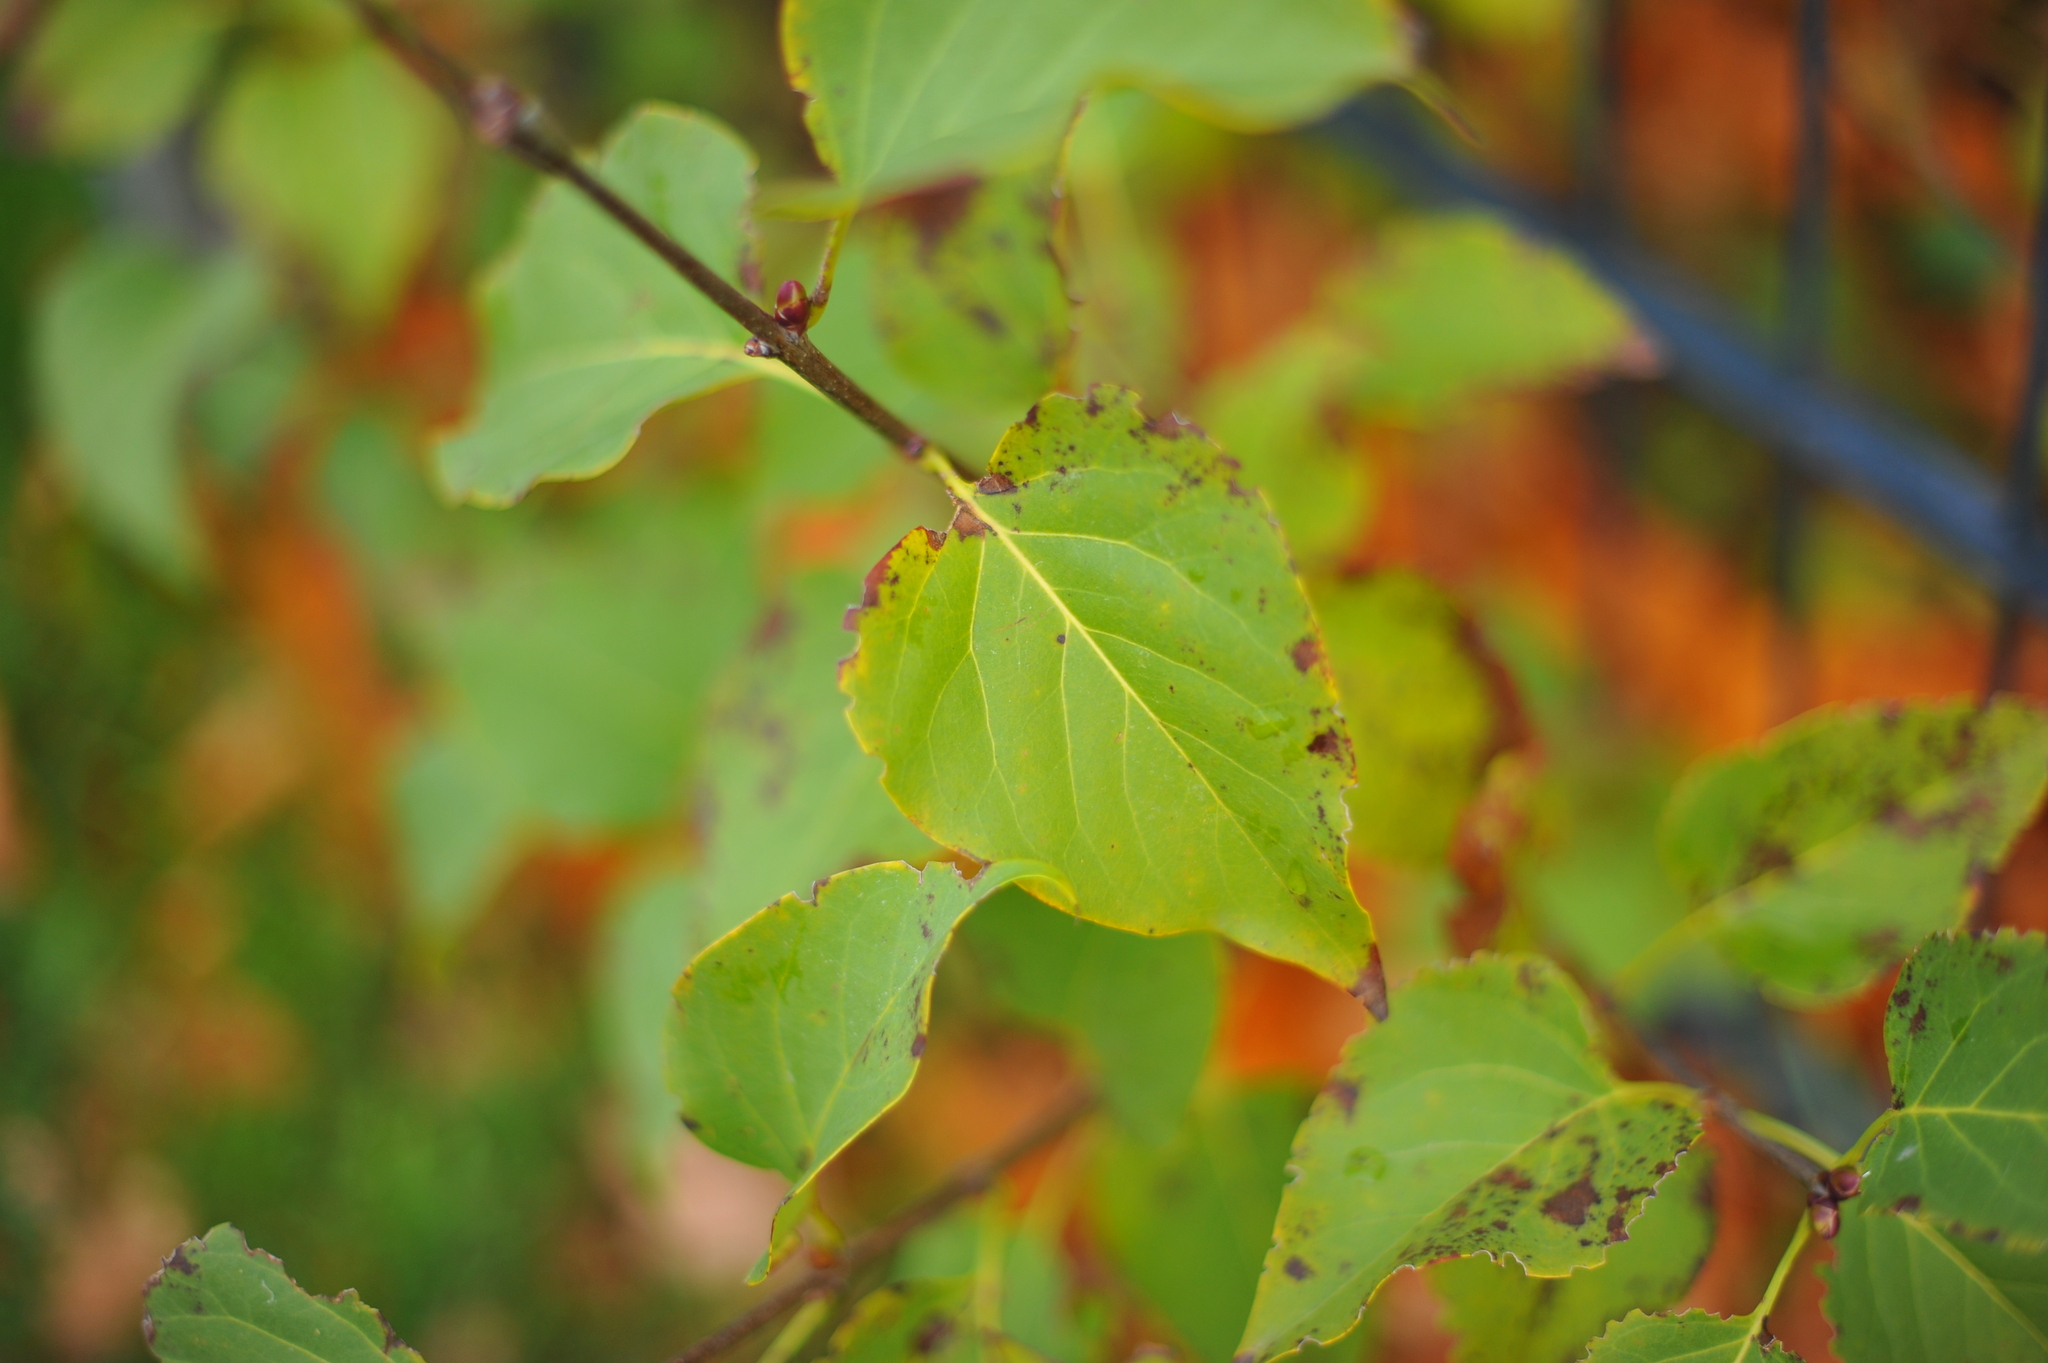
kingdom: Plantae
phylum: Tracheophyta
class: Magnoliopsida
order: Lamiales
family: Oleaceae
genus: Syringa
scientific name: Syringa vulgaris
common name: Common lilac
